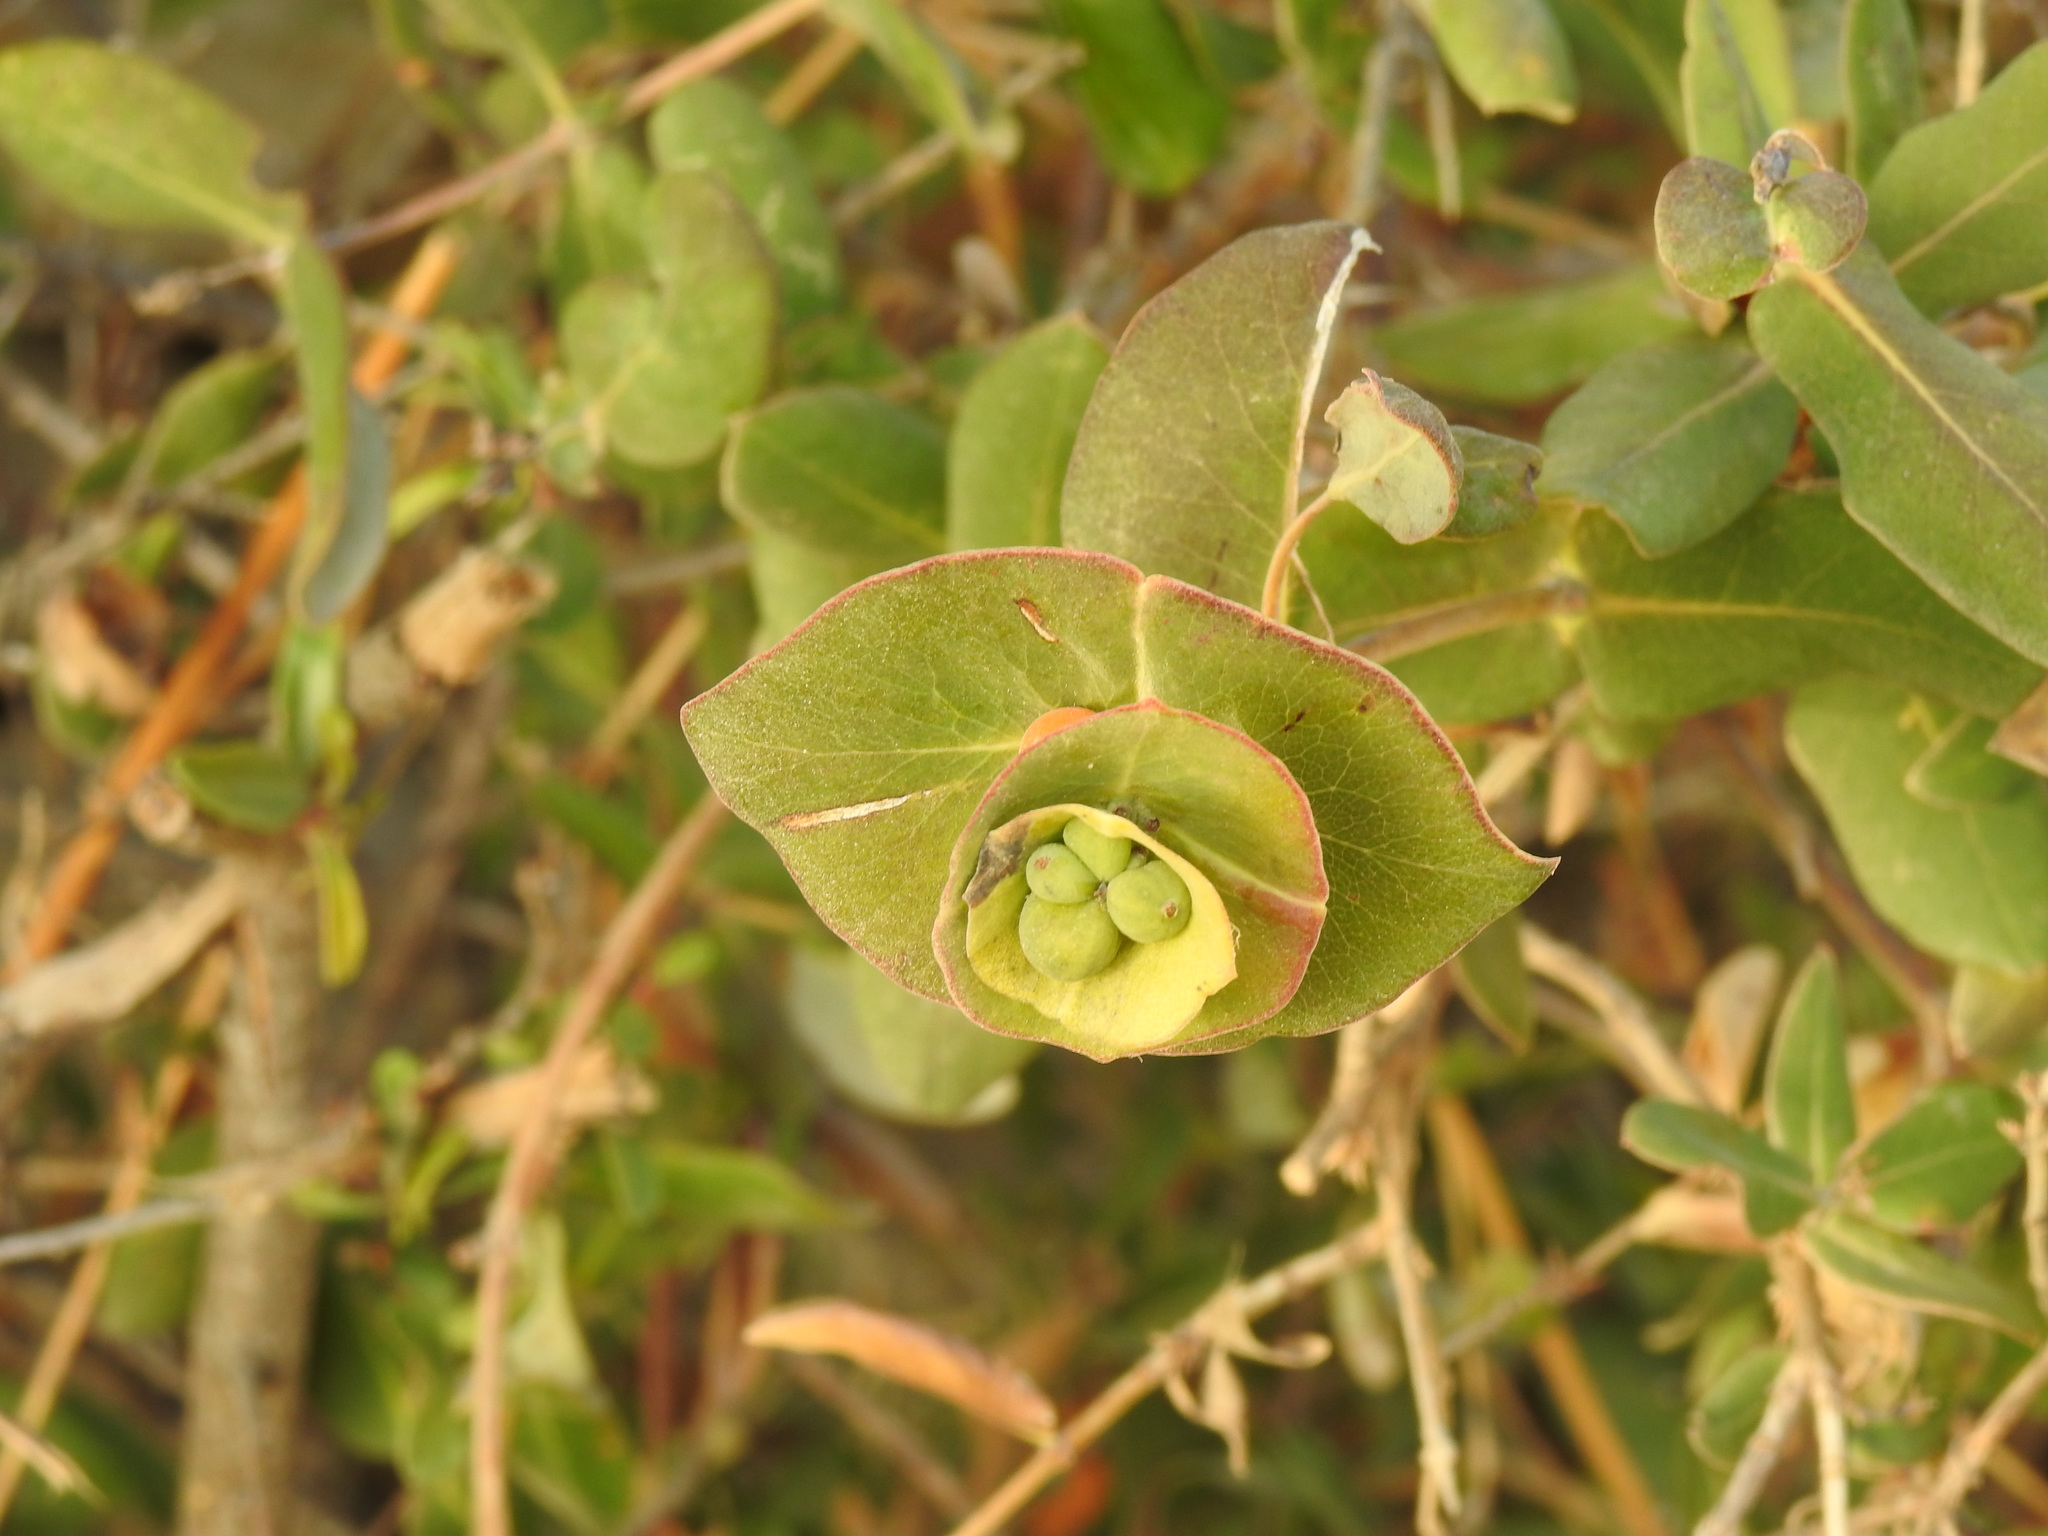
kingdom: Plantae
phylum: Tracheophyta
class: Magnoliopsida
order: Dipsacales
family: Caprifoliaceae
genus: Lonicera
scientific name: Lonicera implexa
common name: Minorca honeysuckle
